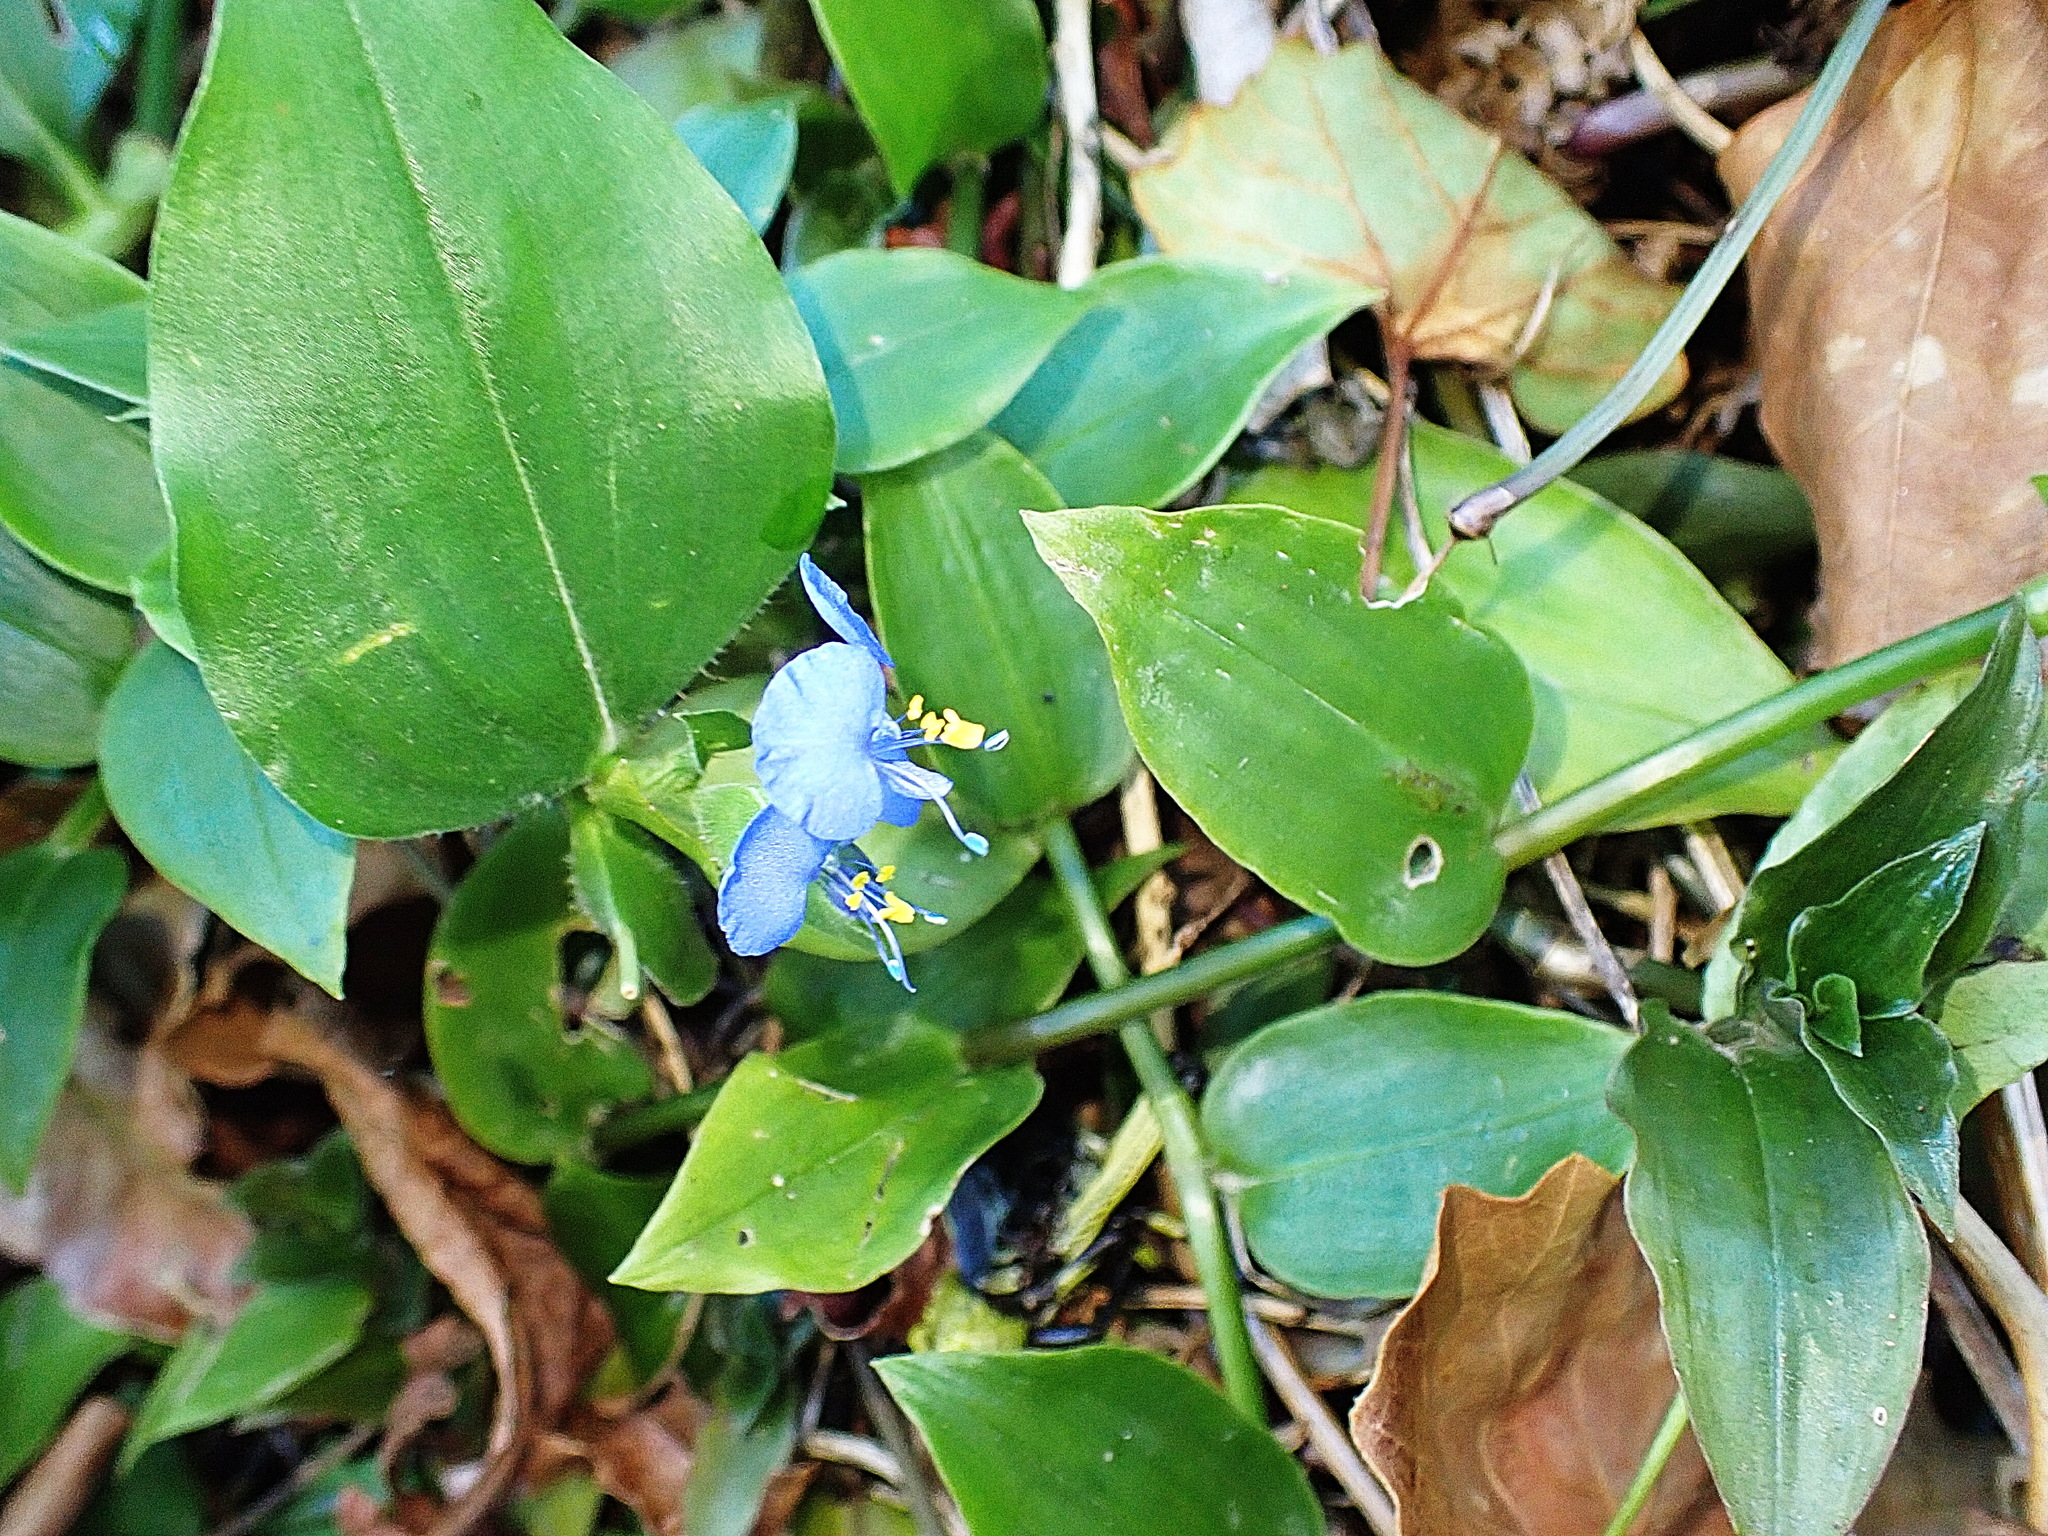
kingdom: Plantae
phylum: Tracheophyta
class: Liliopsida
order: Commelinales
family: Commelinaceae
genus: Commelina
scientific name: Commelina benghalensis
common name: Jio
